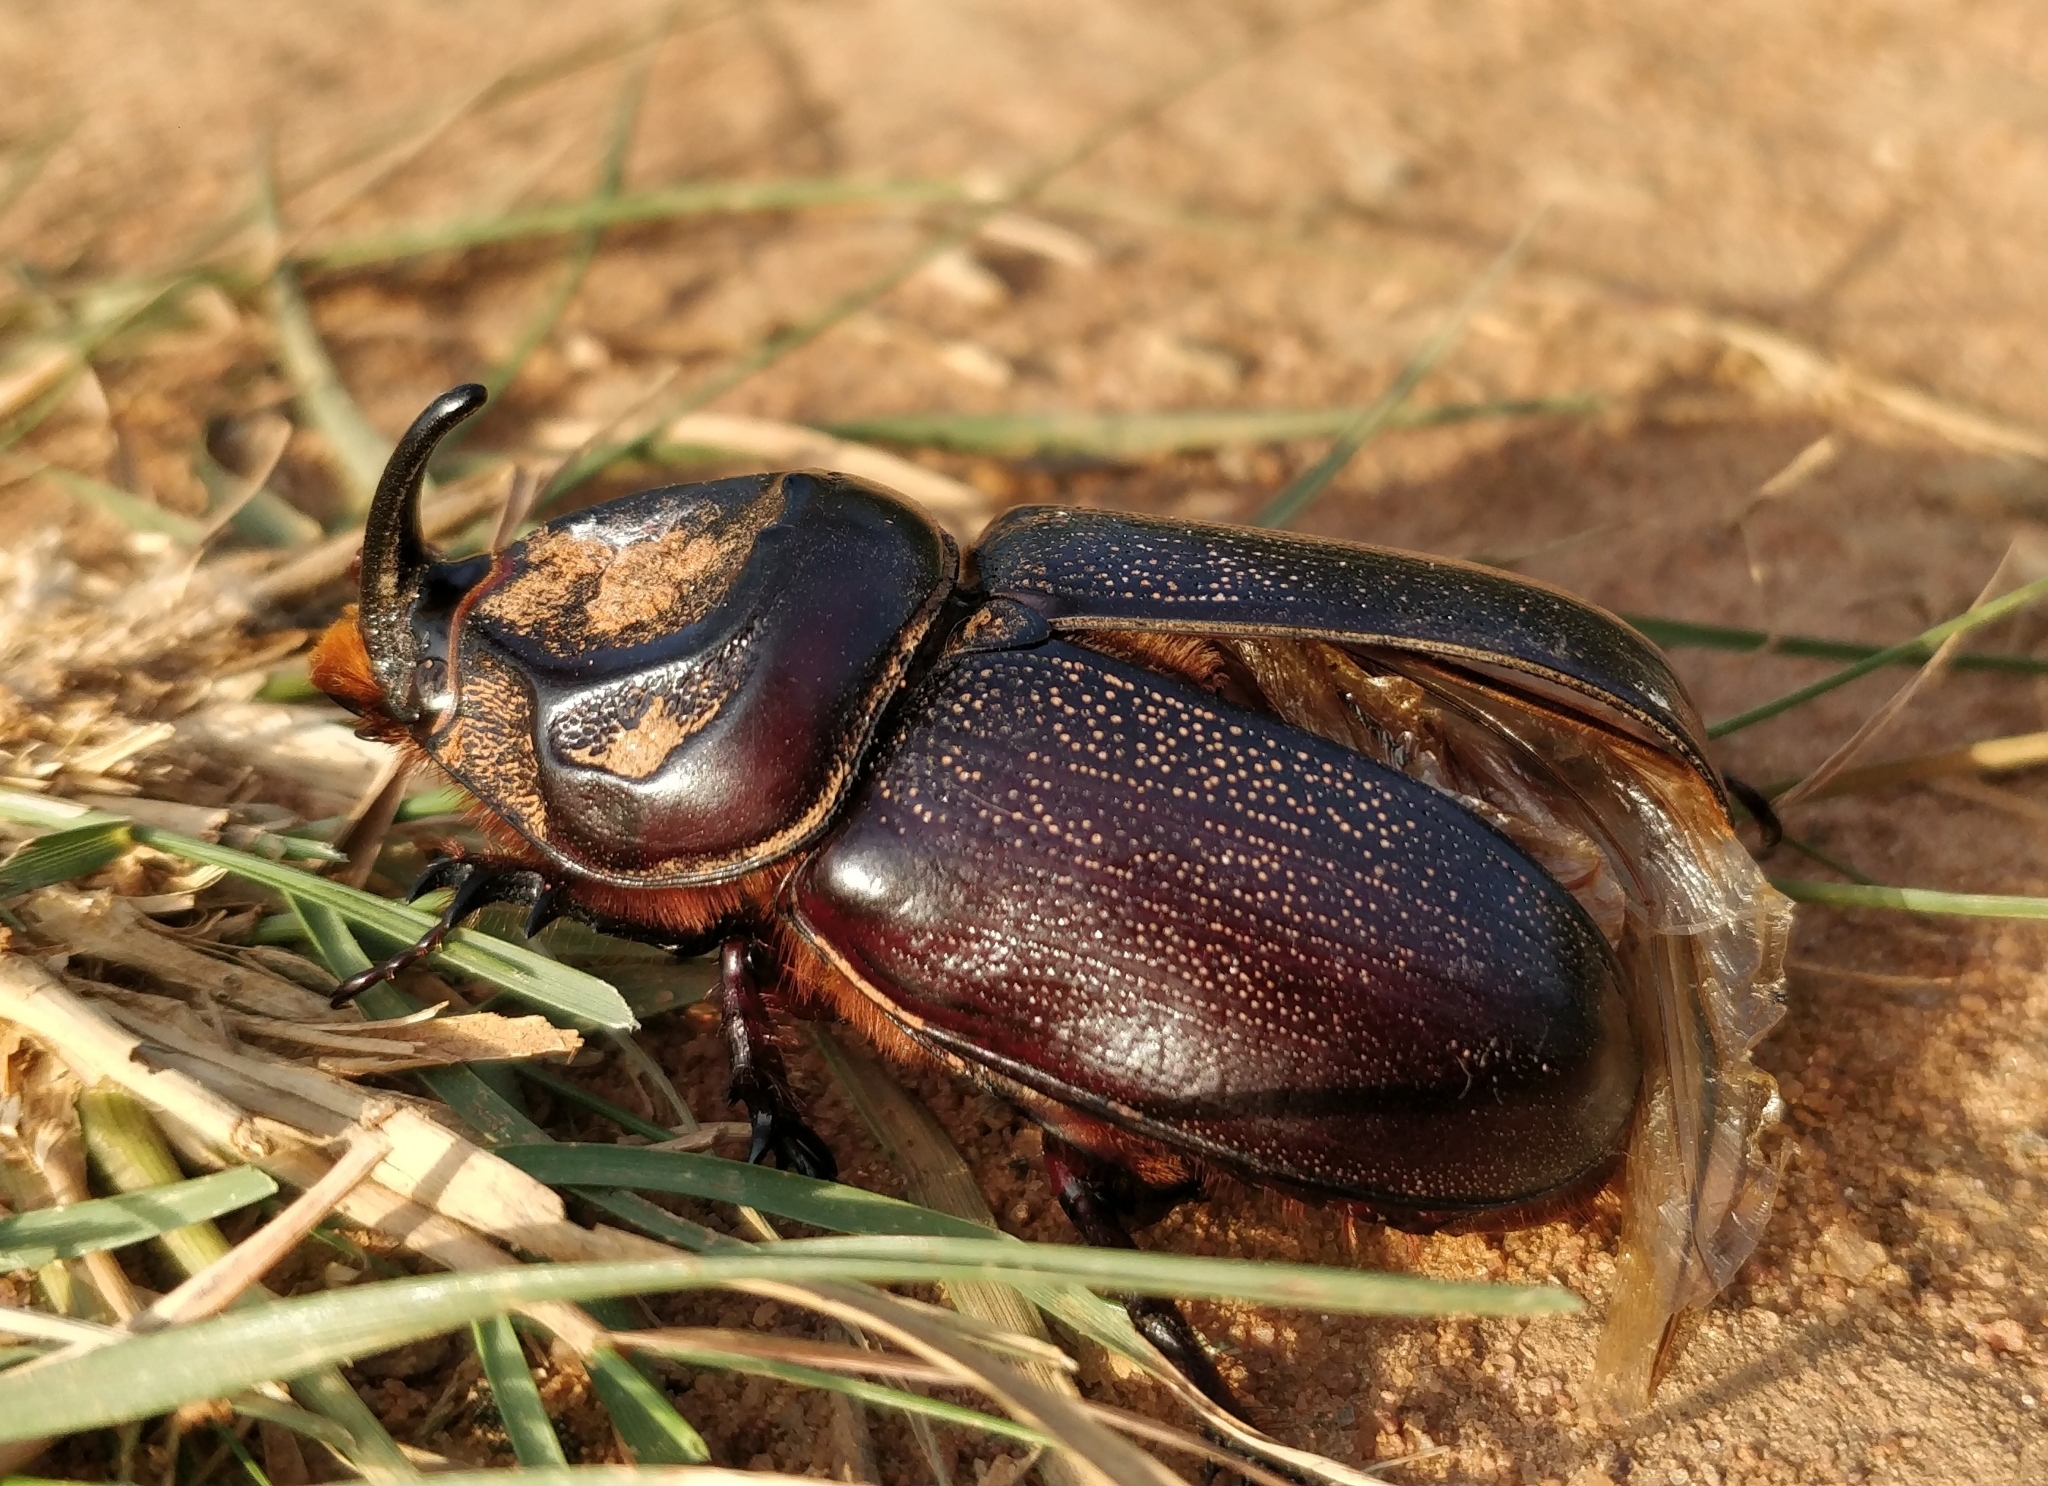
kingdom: Animalia
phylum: Arthropoda
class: Insecta
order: Coleoptera
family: Scarabaeidae
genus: Oryctes
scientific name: Oryctes rhinoceros
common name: Coconut rhinoceros beetle
